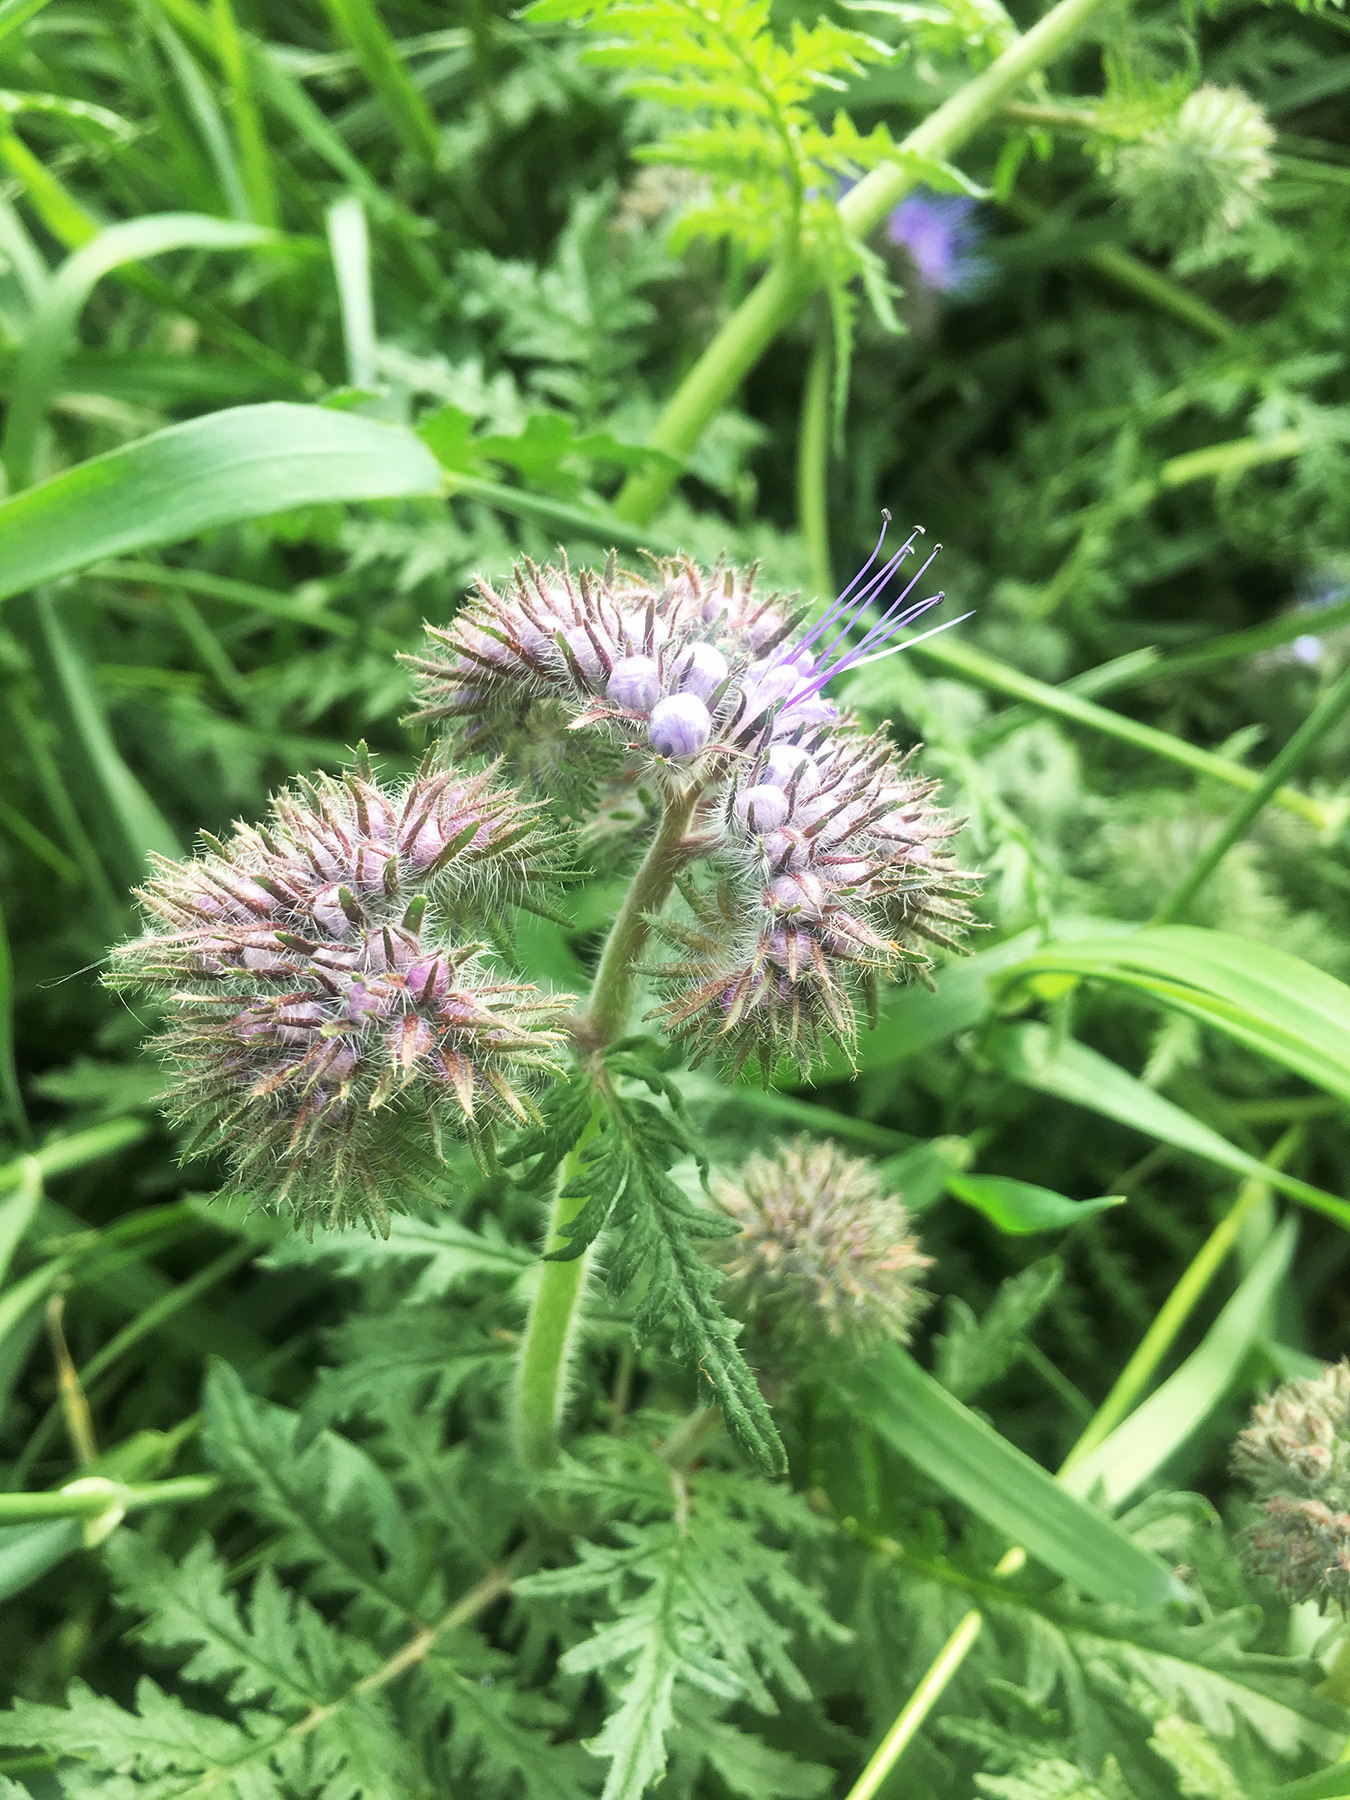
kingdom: Plantae
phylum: Tracheophyta
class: Magnoliopsida
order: Boraginales
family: Hydrophyllaceae
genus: Phacelia
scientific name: Phacelia tanacetifolia
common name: Phacelia
